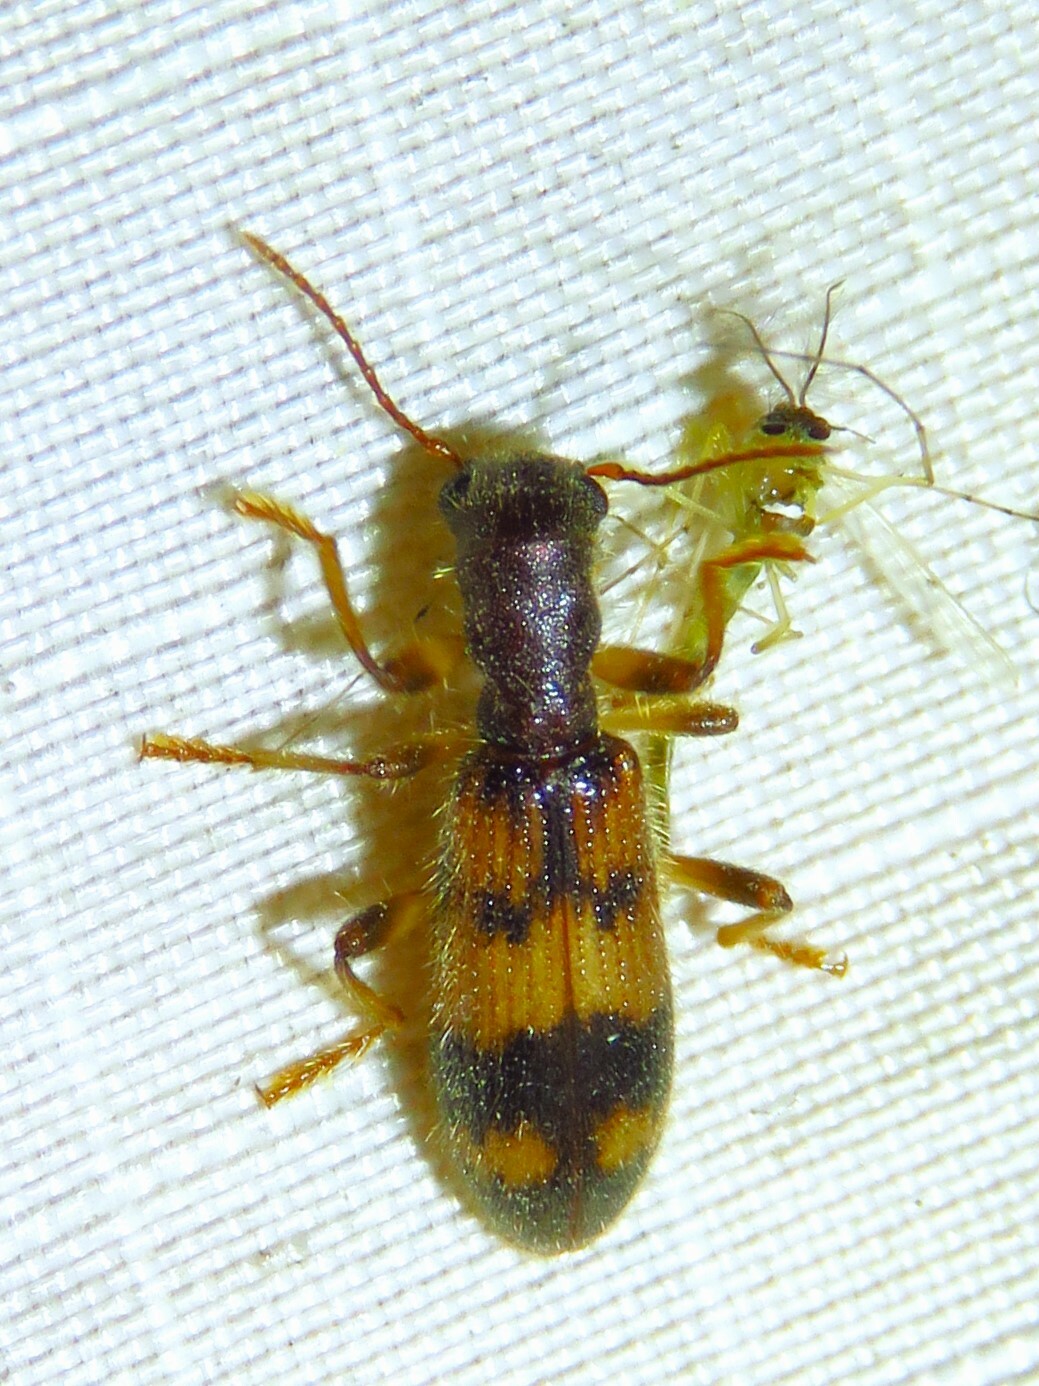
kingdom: Animalia
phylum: Arthropoda
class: Insecta
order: Coleoptera
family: Cleridae
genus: Cymatodera
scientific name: Cymatodera undulata
